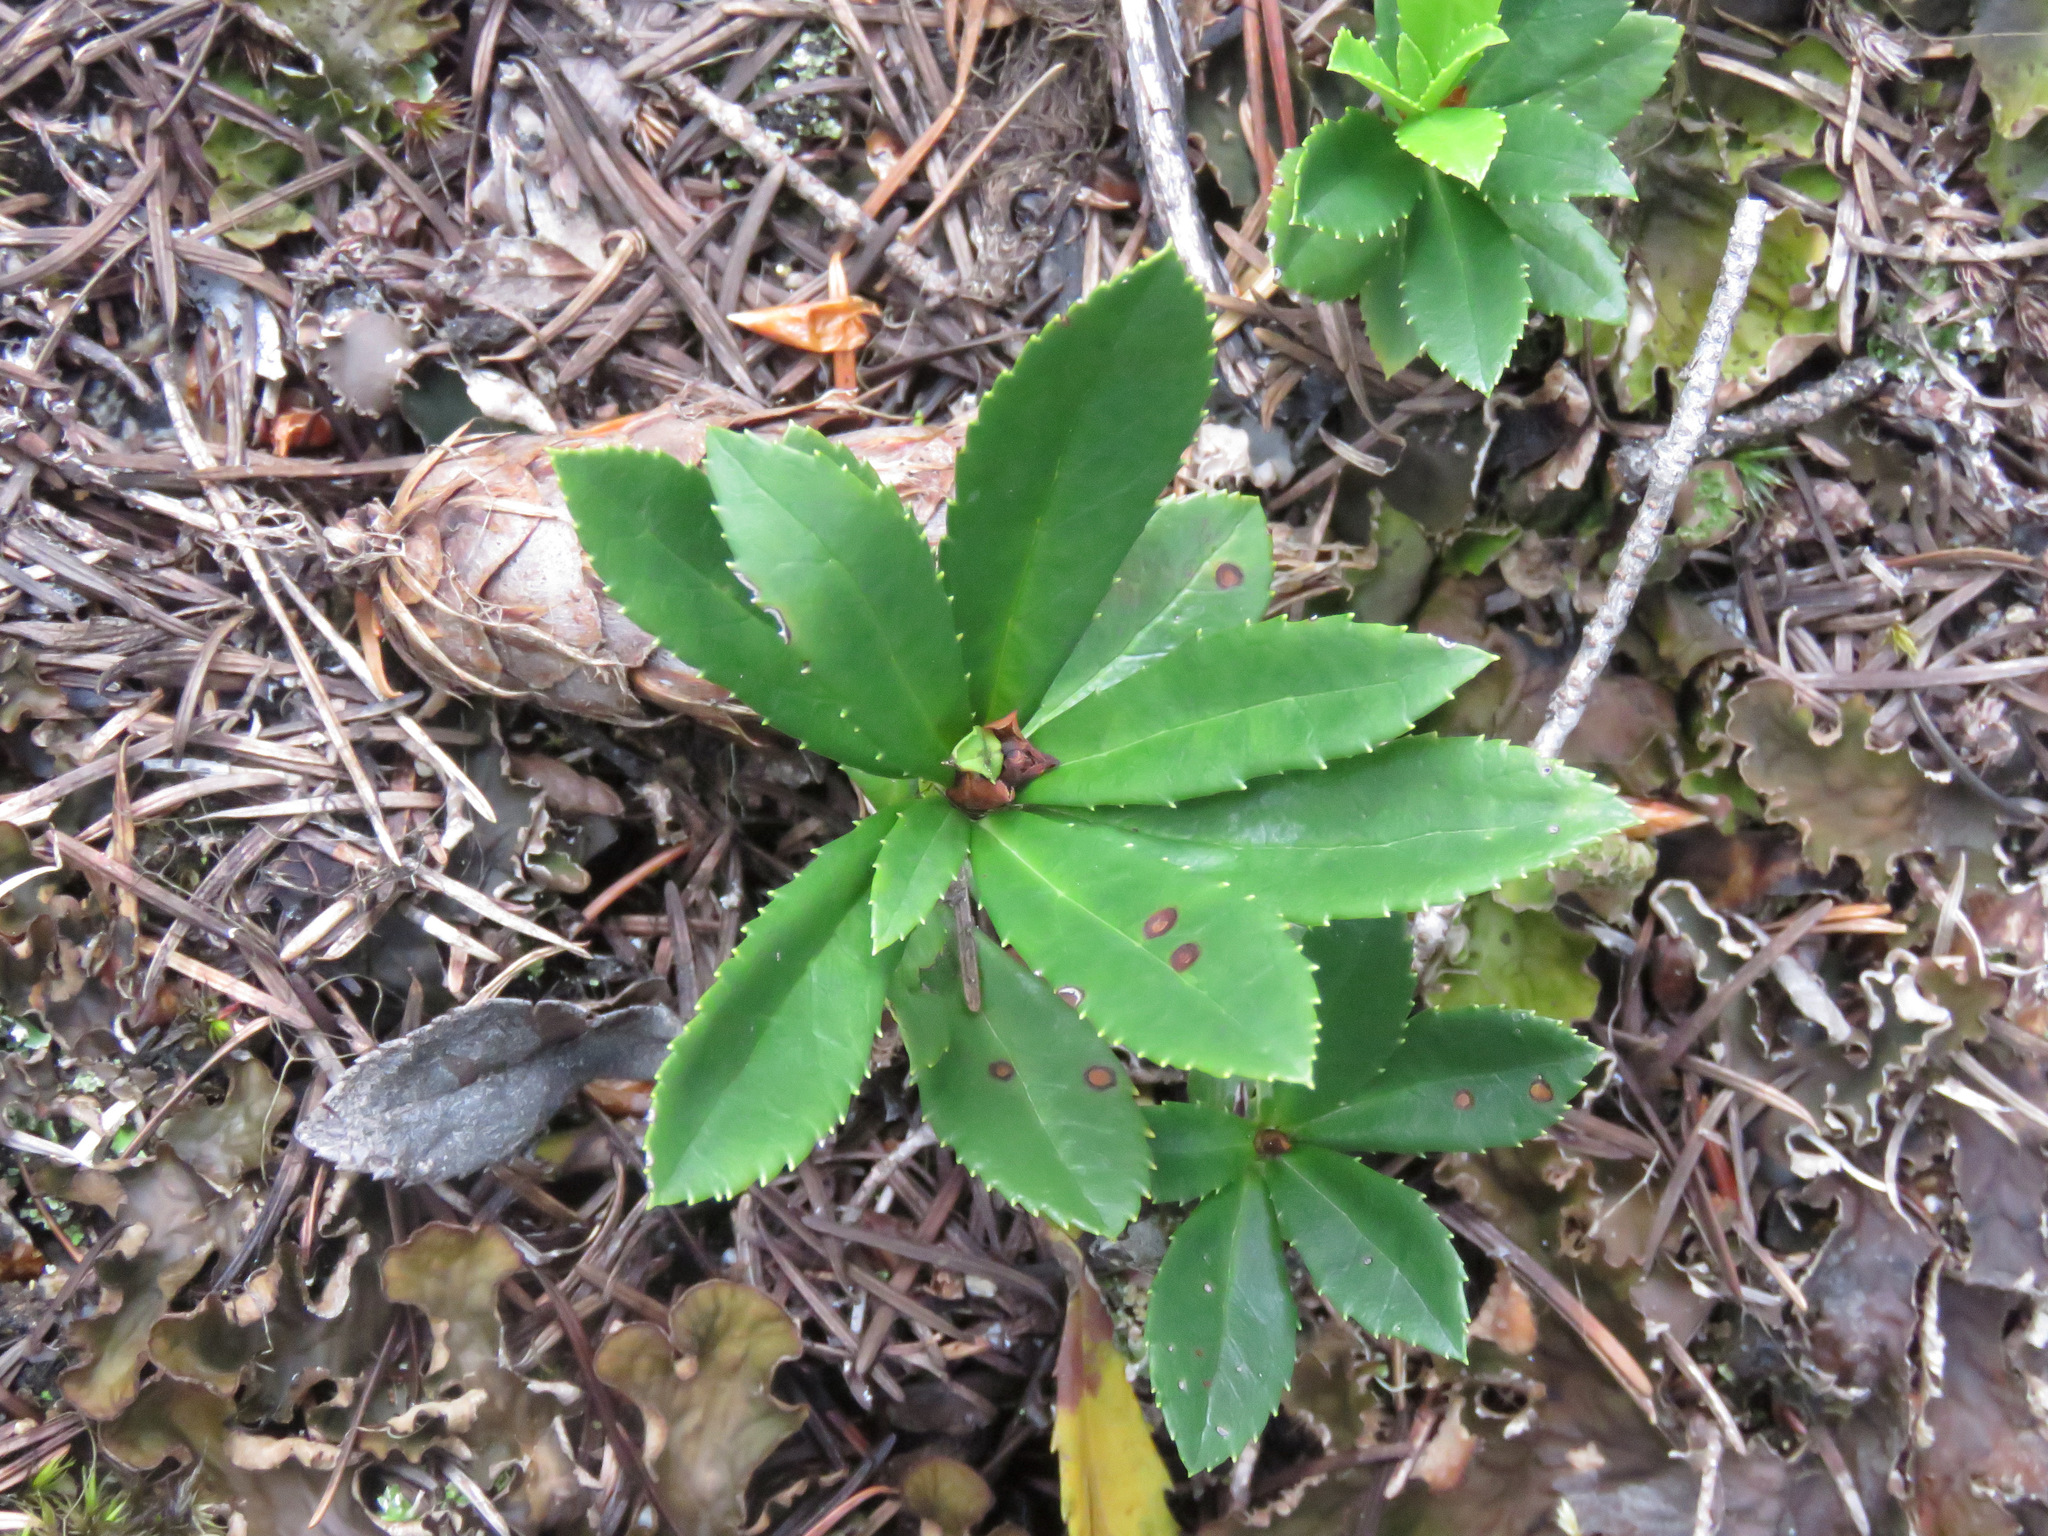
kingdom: Plantae
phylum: Tracheophyta
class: Magnoliopsida
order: Ericales
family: Ericaceae
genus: Chimaphila
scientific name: Chimaphila umbellata
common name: Pipsissewa
